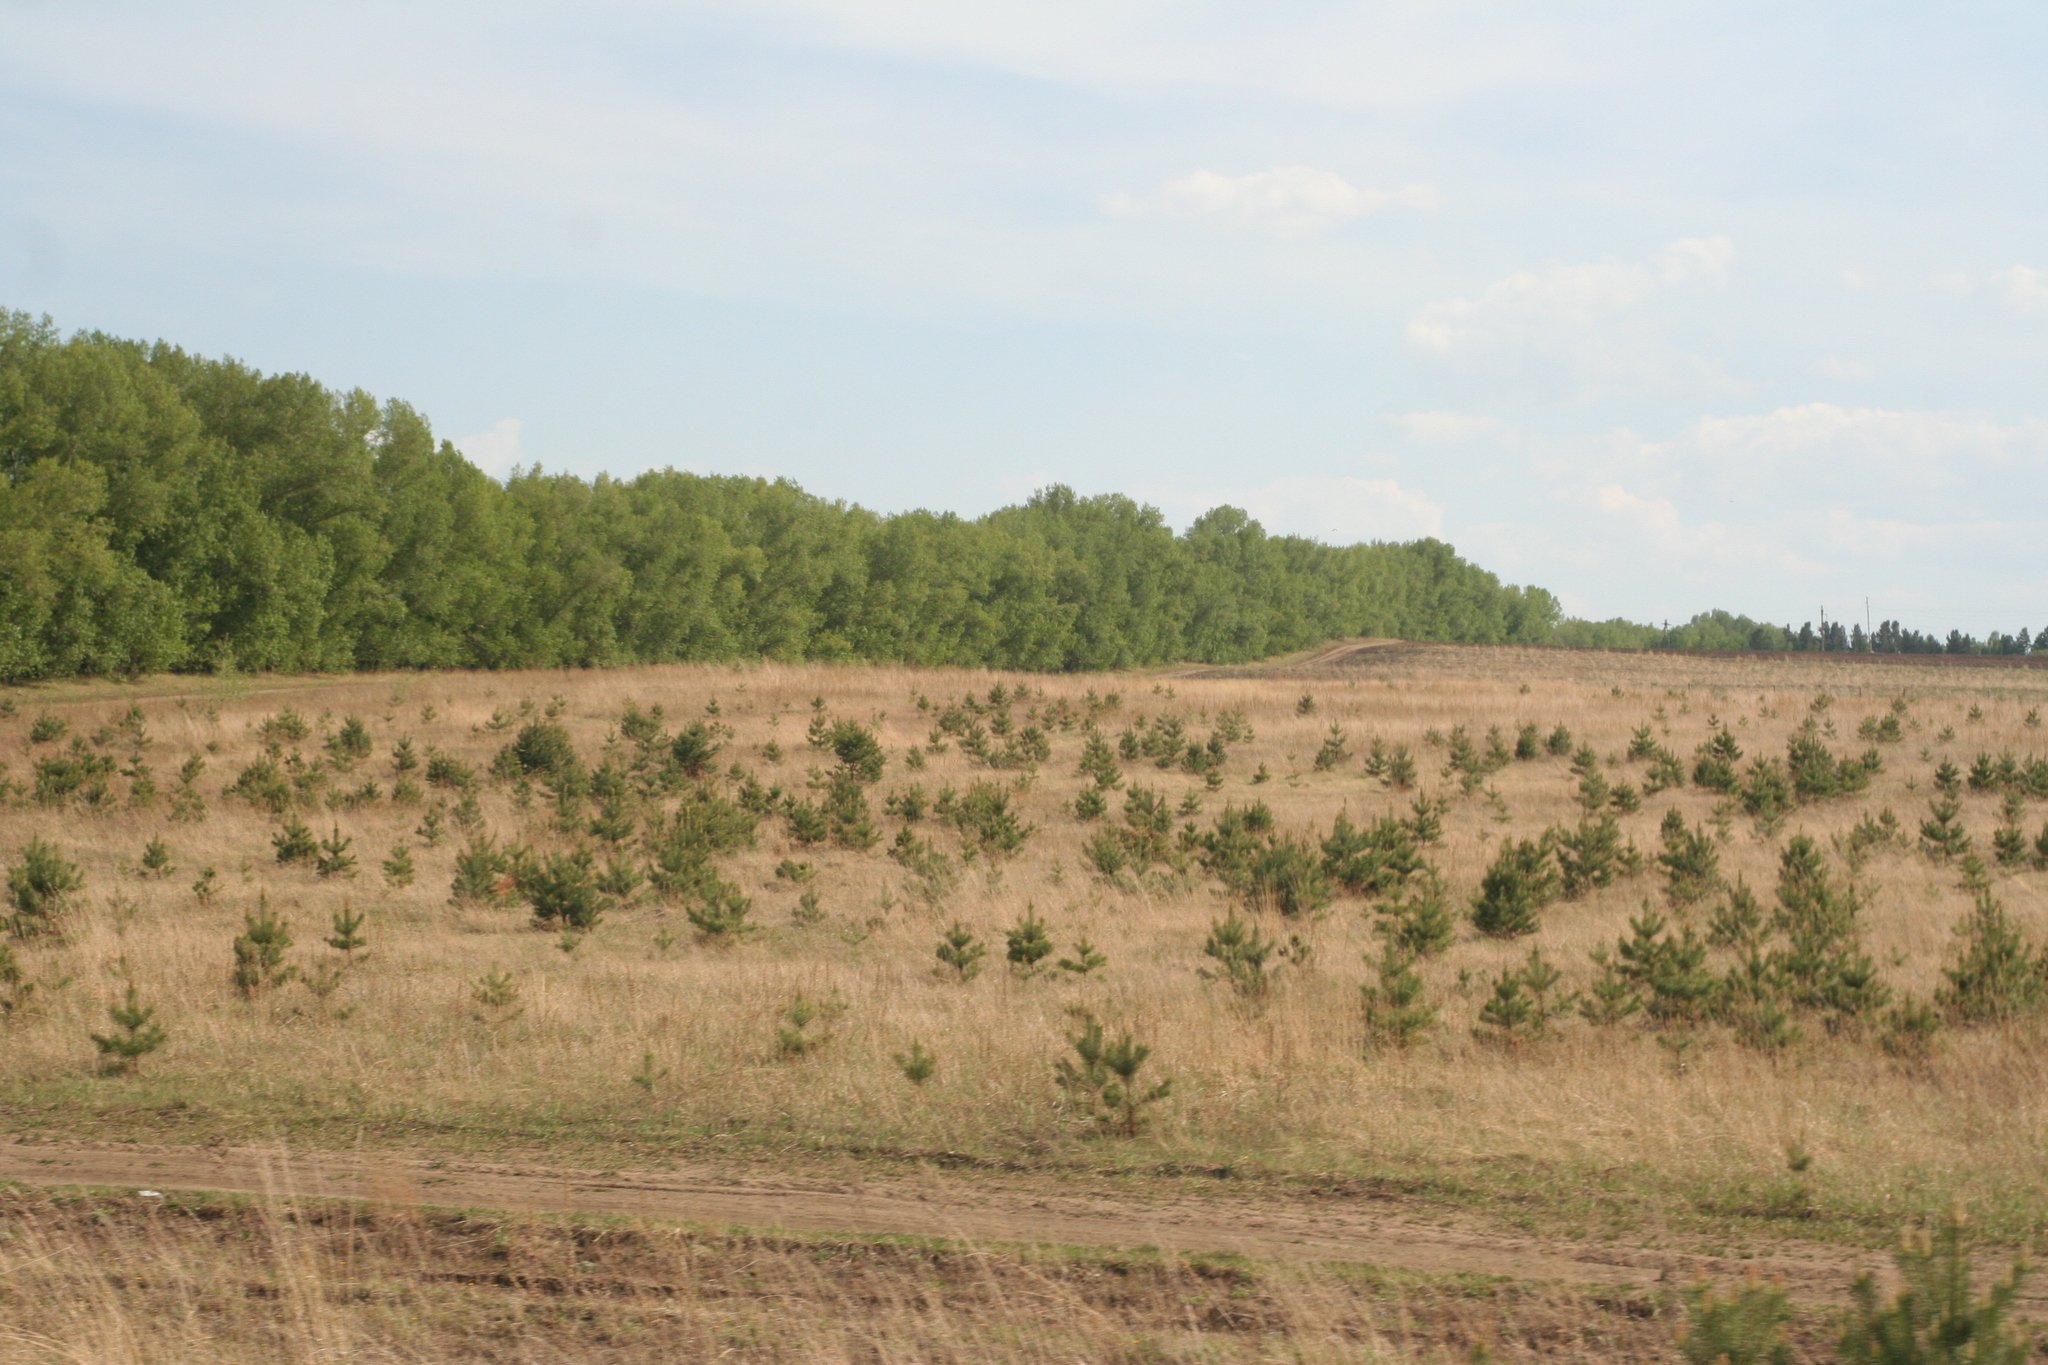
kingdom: Plantae
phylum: Tracheophyta
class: Pinopsida
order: Pinales
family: Pinaceae
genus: Pinus
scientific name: Pinus sylvestris
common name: Scots pine
